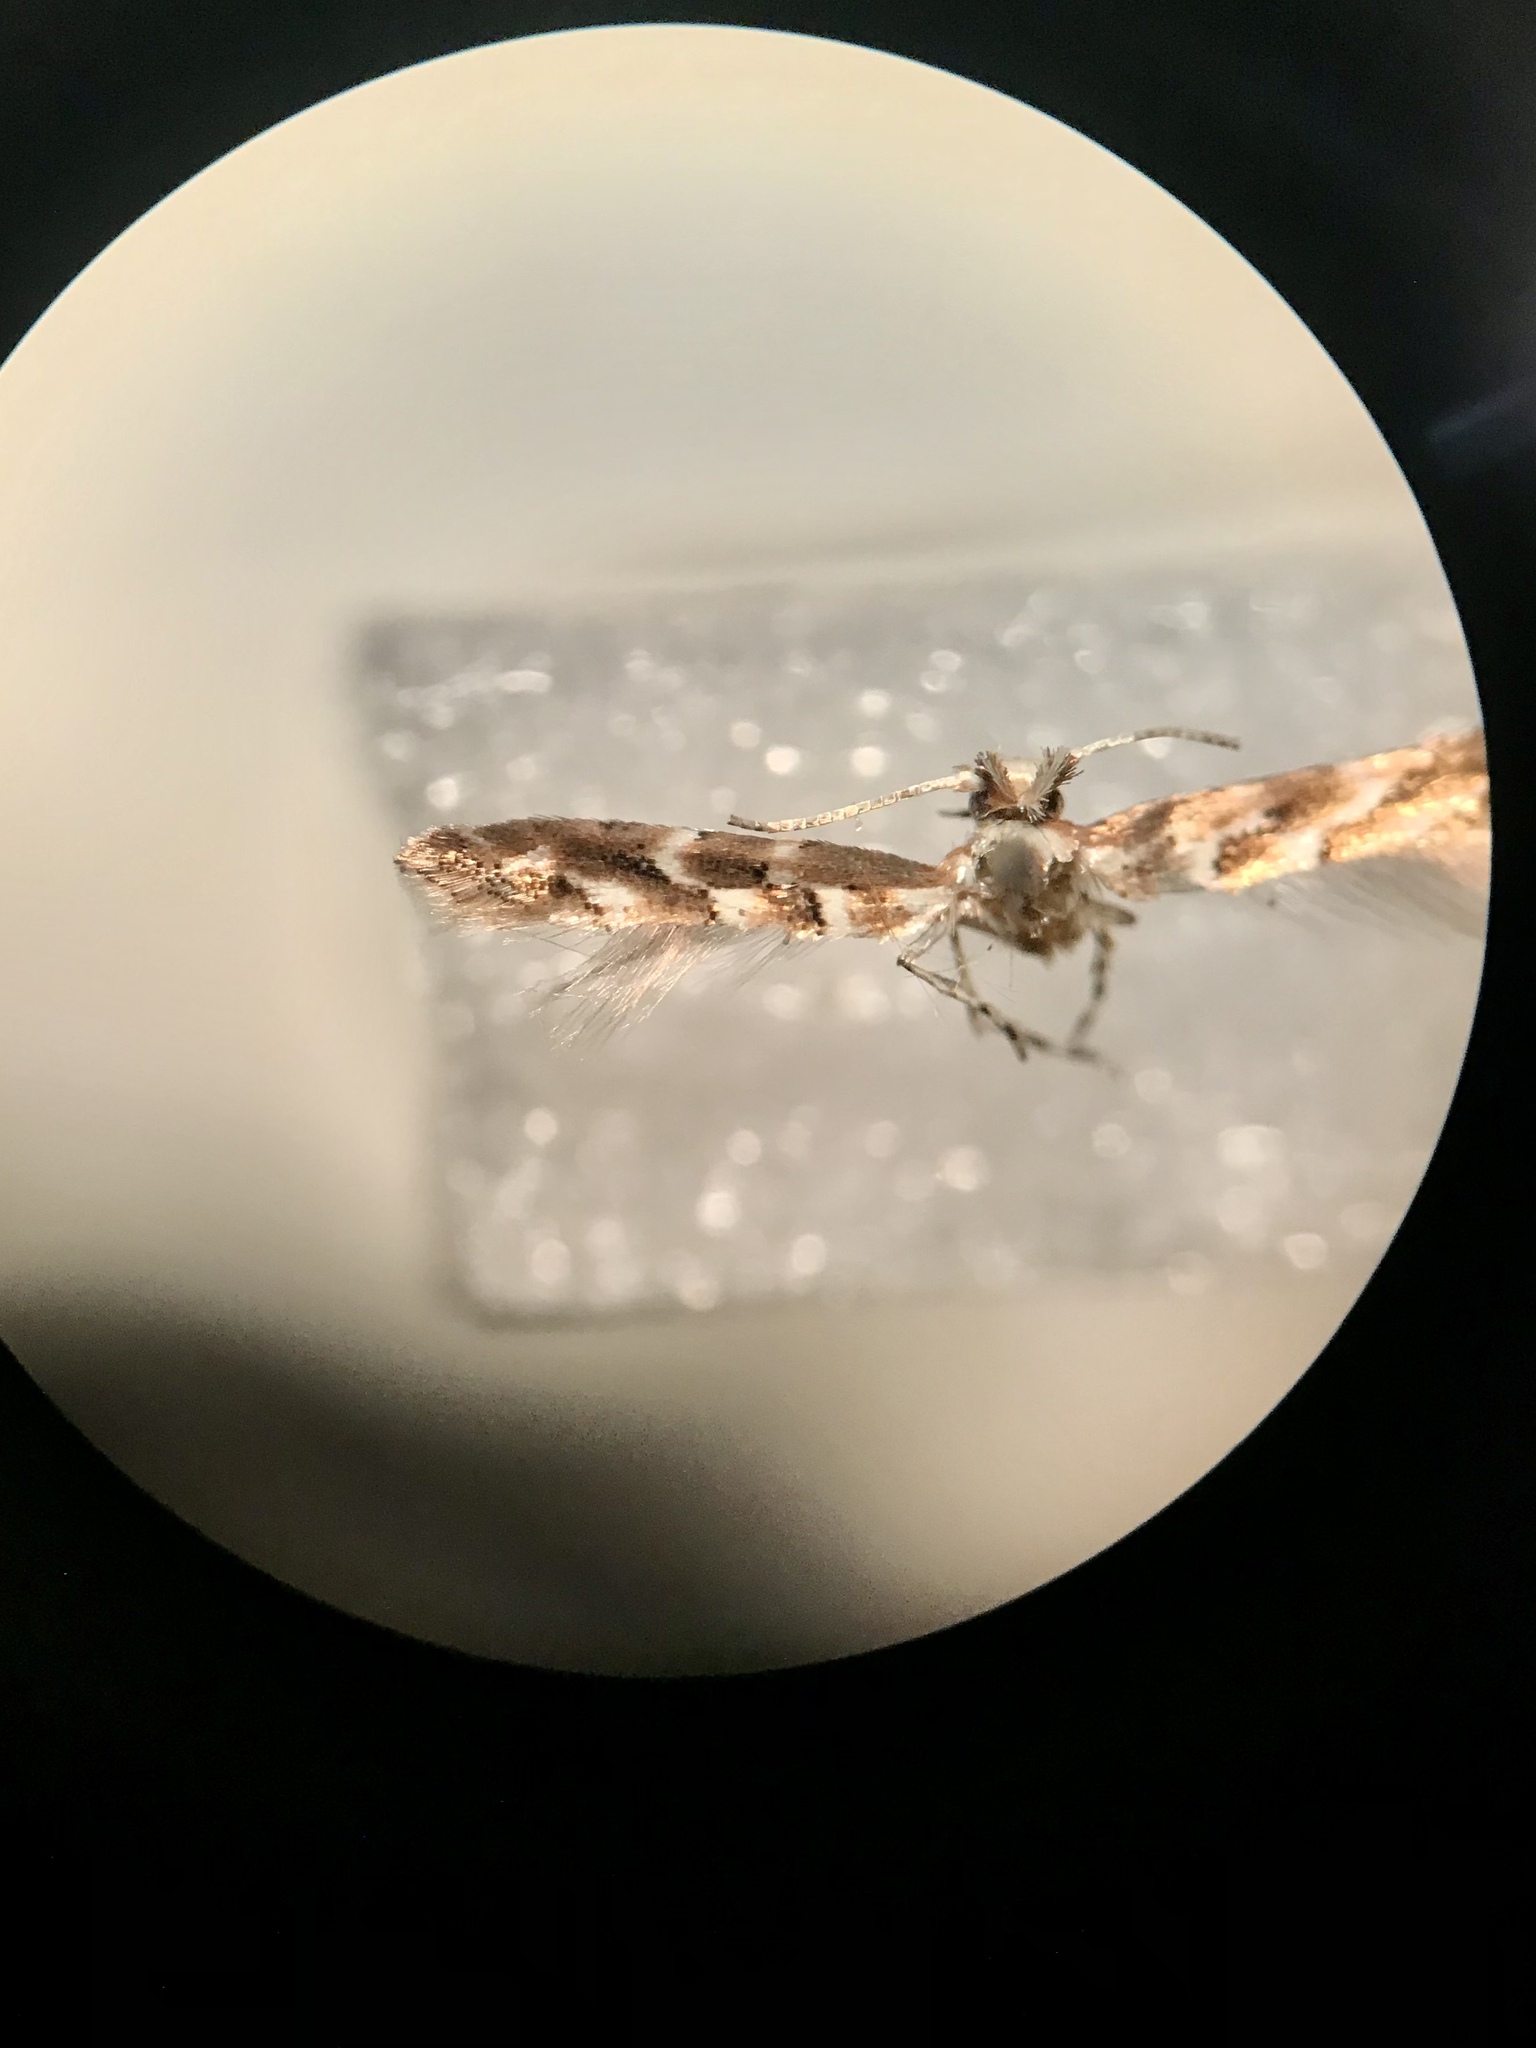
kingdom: Animalia
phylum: Arthropoda
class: Insecta
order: Lepidoptera
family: Gracillariidae
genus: Cameraria
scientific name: Cameraria macrocarpella
